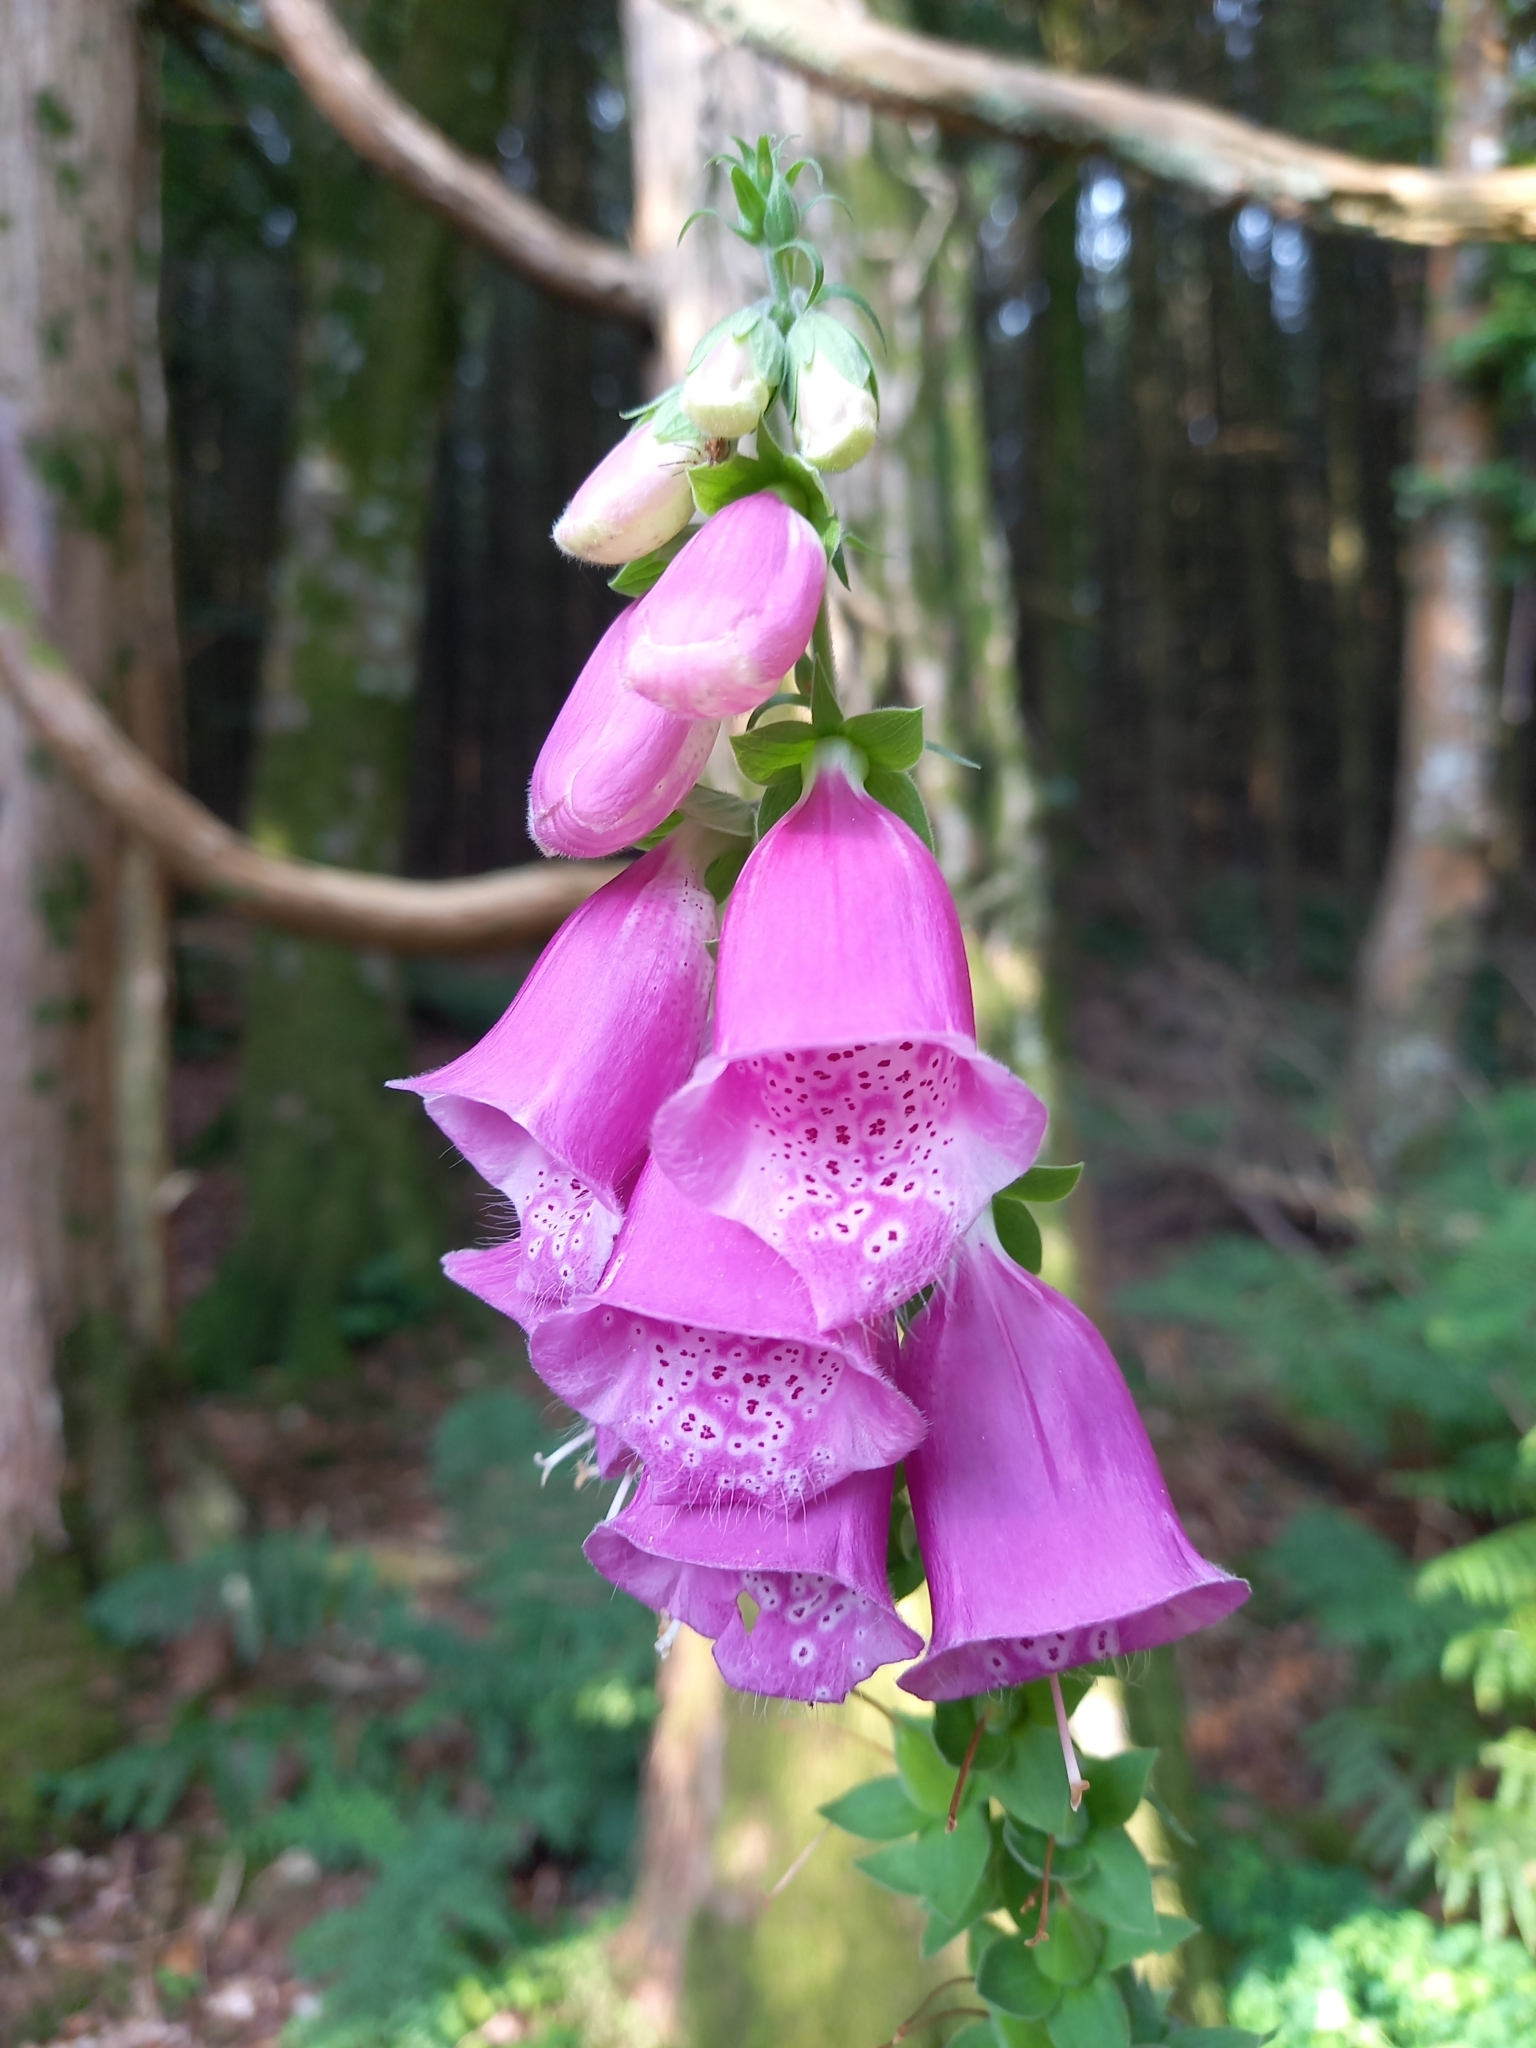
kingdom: Plantae
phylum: Tracheophyta
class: Magnoliopsida
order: Lamiales
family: Plantaginaceae
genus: Digitalis
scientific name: Digitalis purpurea
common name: Foxglove
